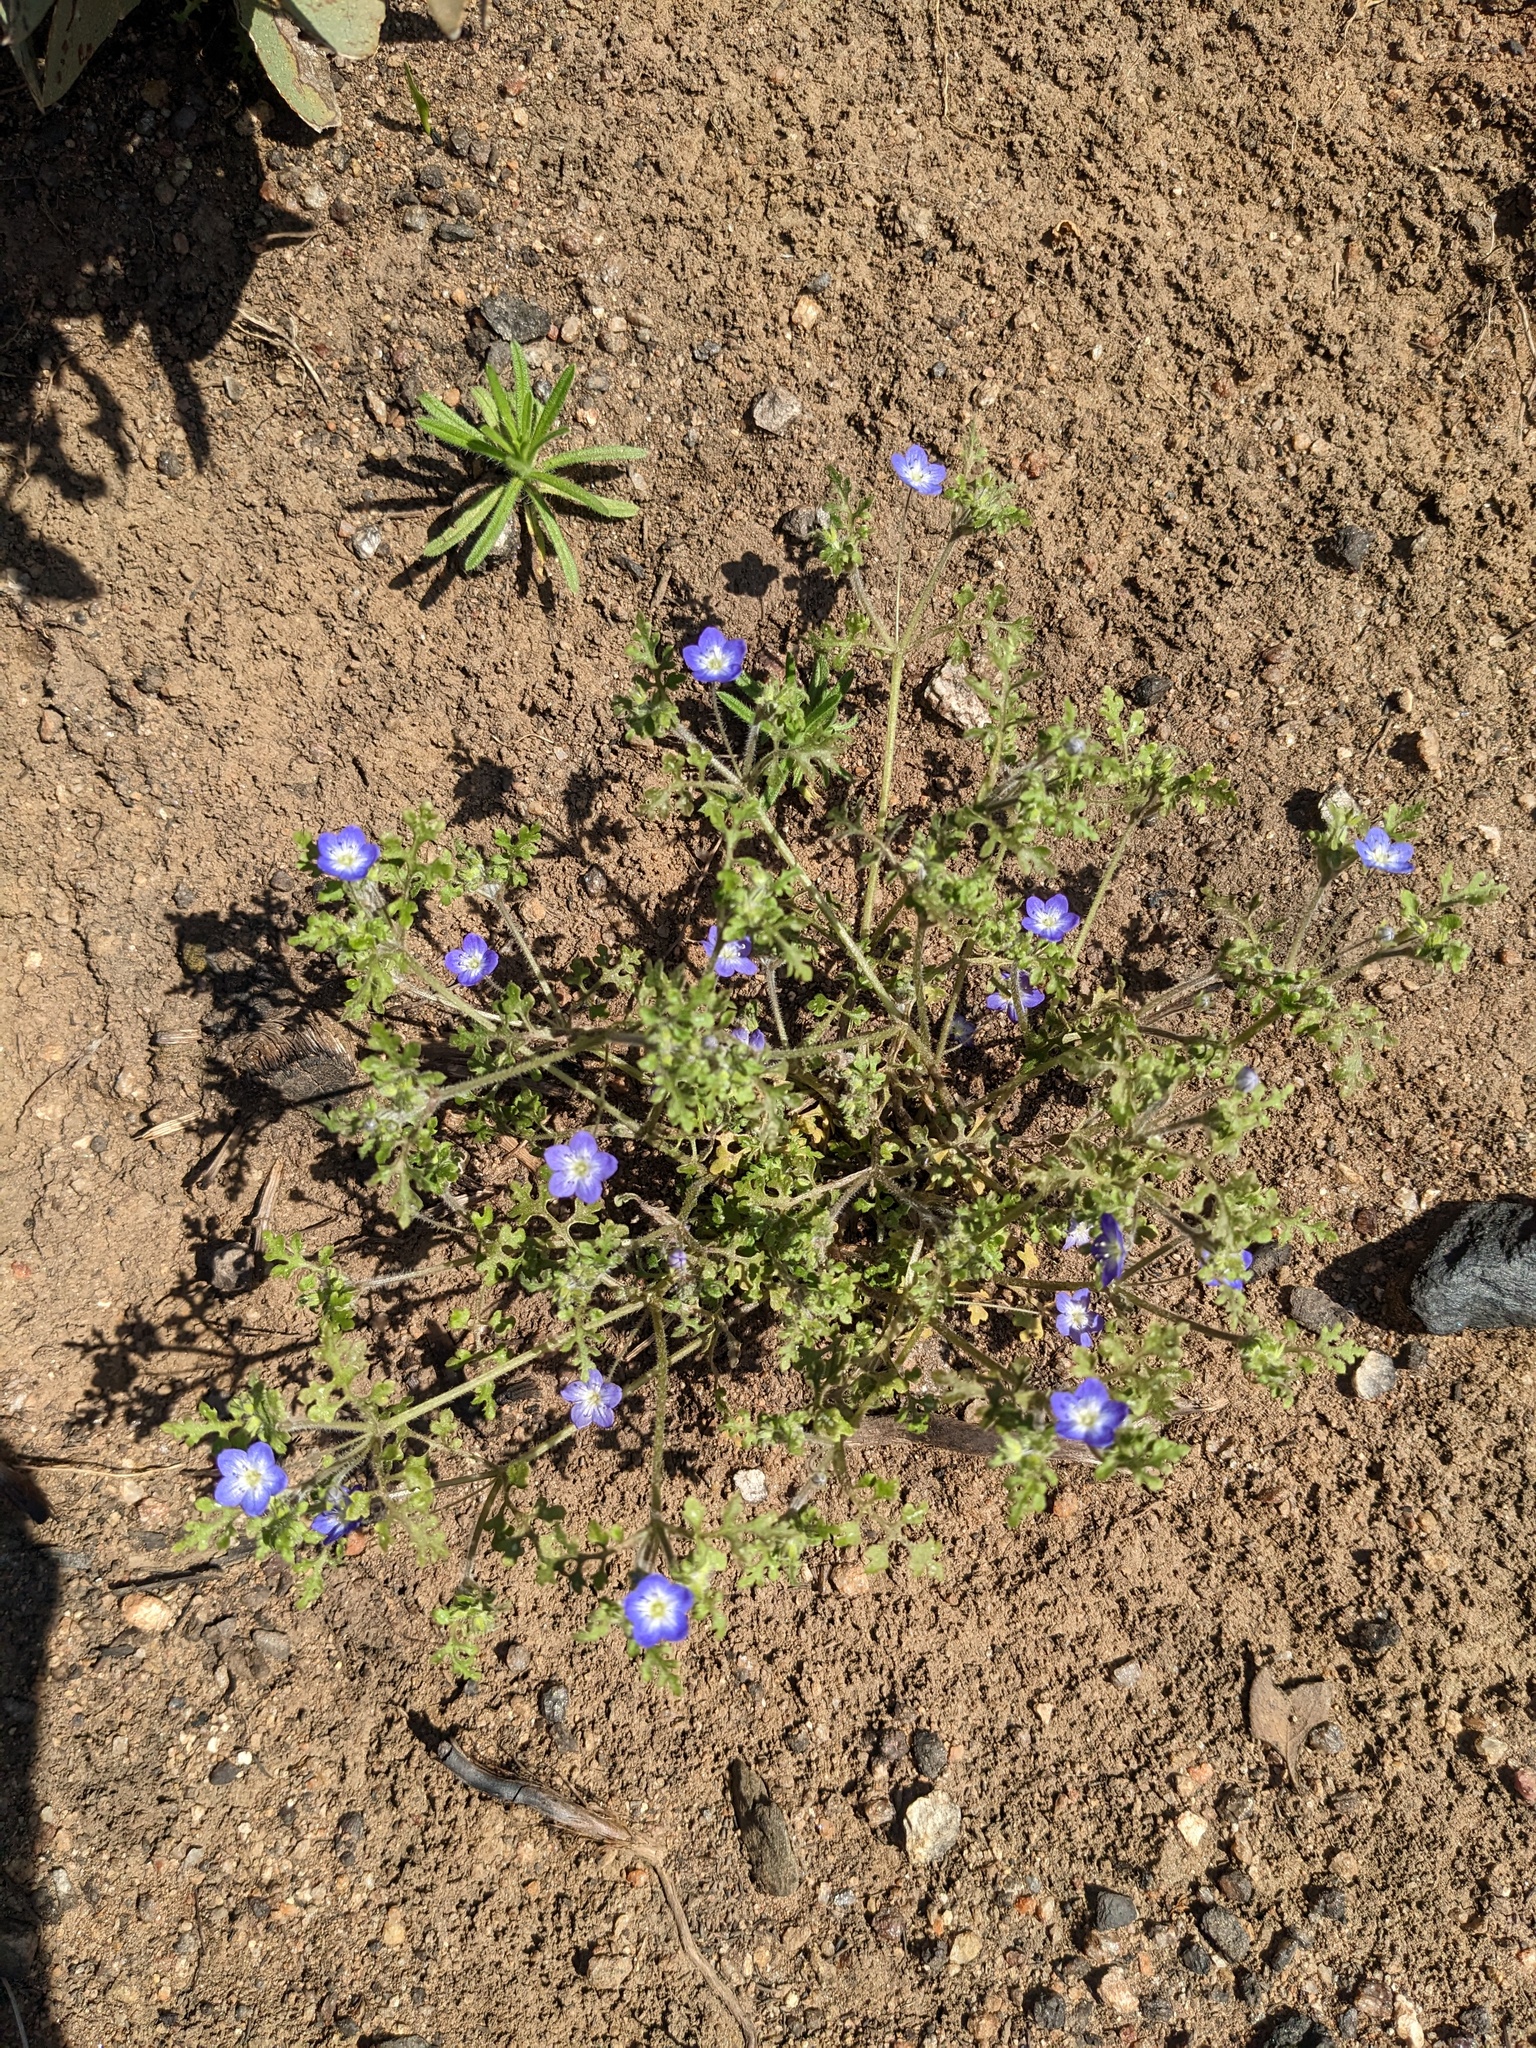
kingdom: Plantae
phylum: Tracheophyta
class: Magnoliopsida
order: Boraginales
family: Hydrophyllaceae
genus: Nemophila
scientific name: Nemophila pulchella
